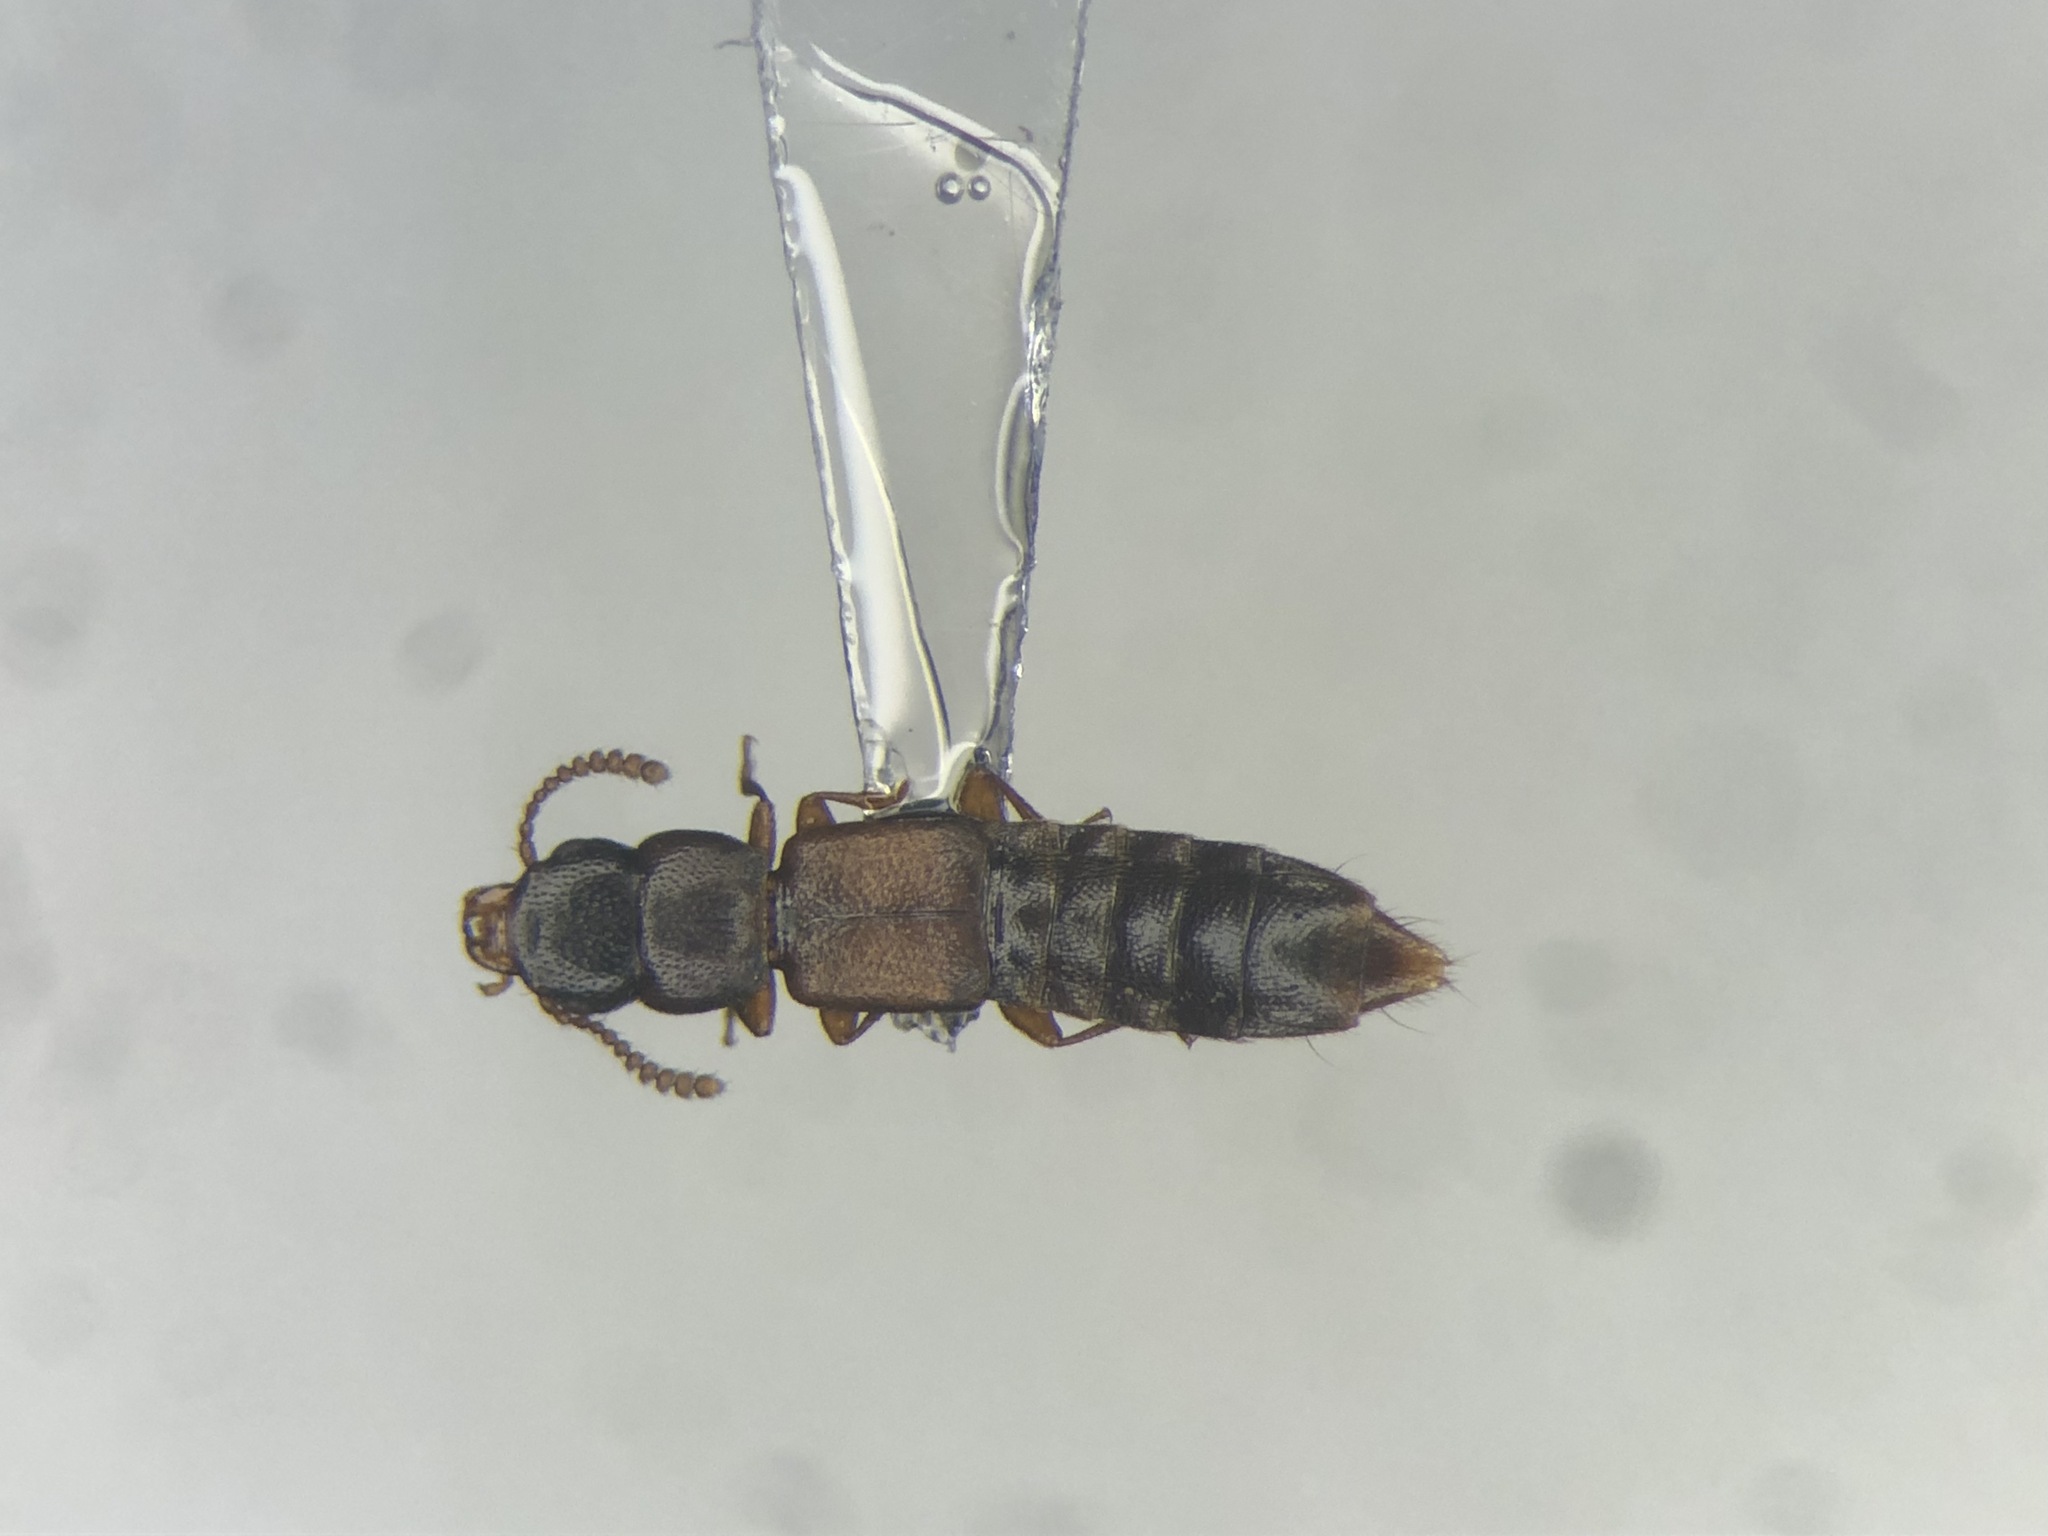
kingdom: Animalia
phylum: Arthropoda
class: Insecta
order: Coleoptera
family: Staphylinidae
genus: Charhyphus
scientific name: Charhyphus picipennis
